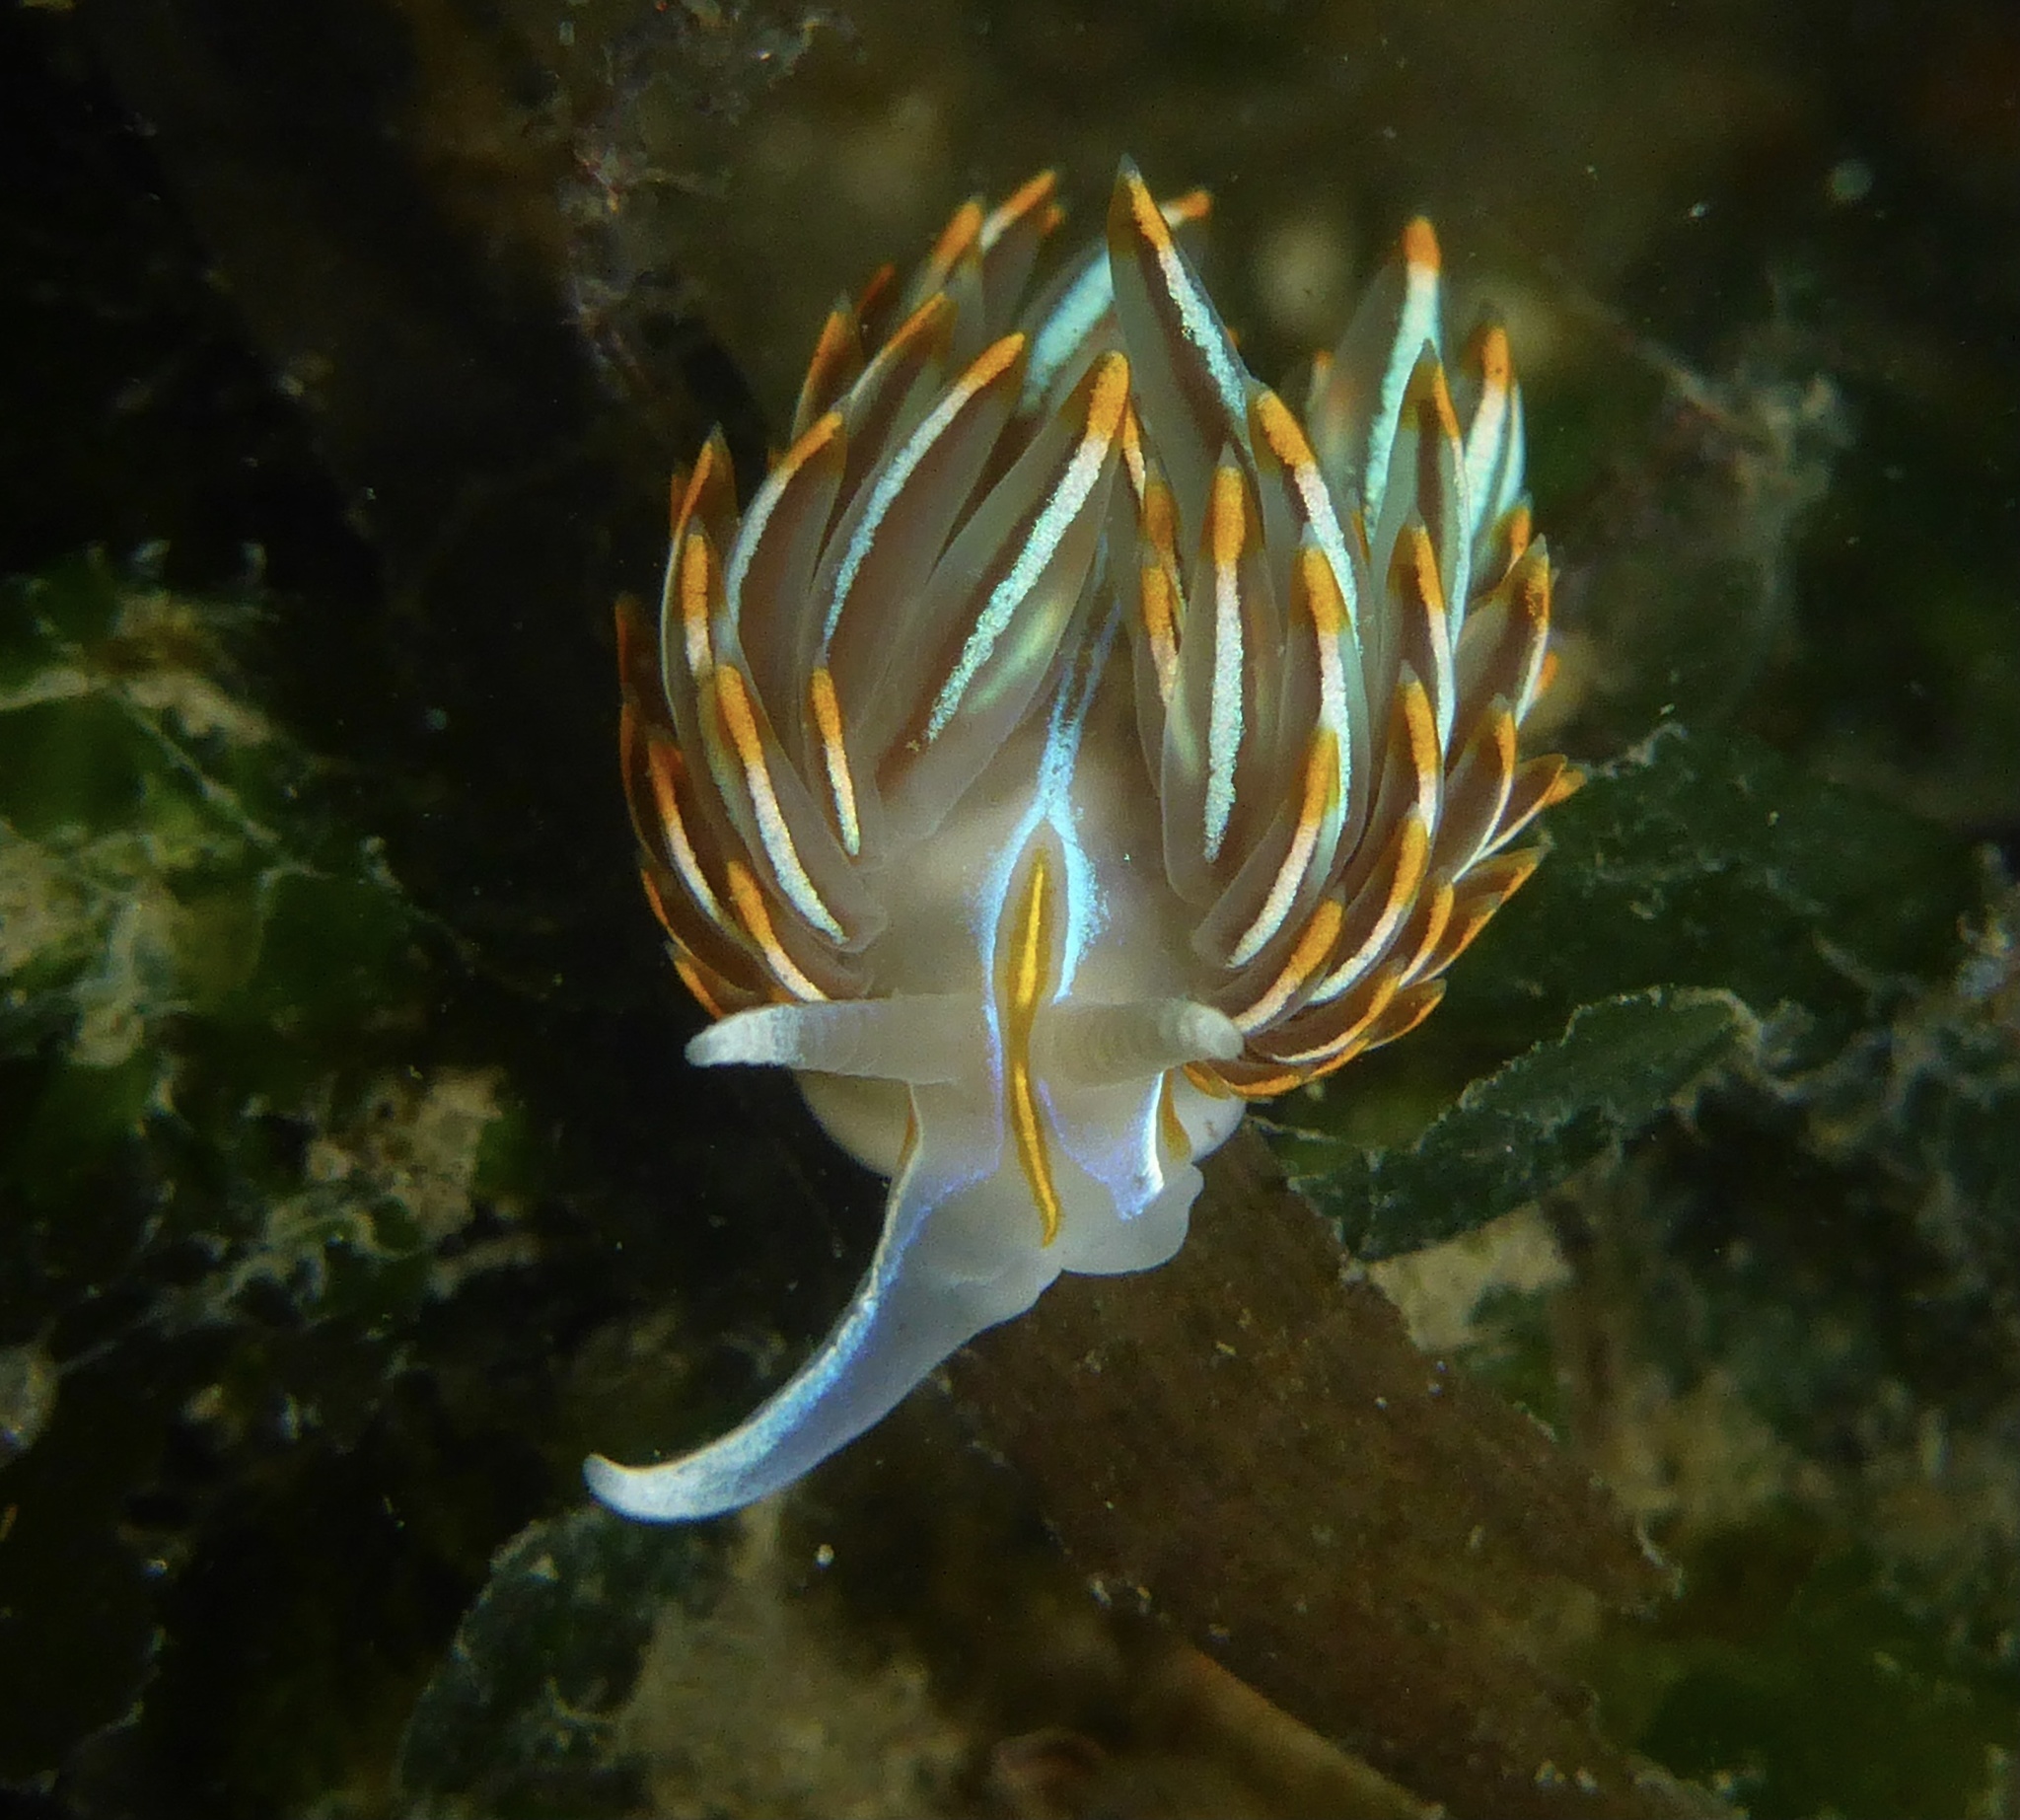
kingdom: Animalia
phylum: Mollusca
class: Gastropoda
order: Nudibranchia
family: Myrrhinidae
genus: Hermissenda
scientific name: Hermissenda crassicornis
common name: Hermissenda
